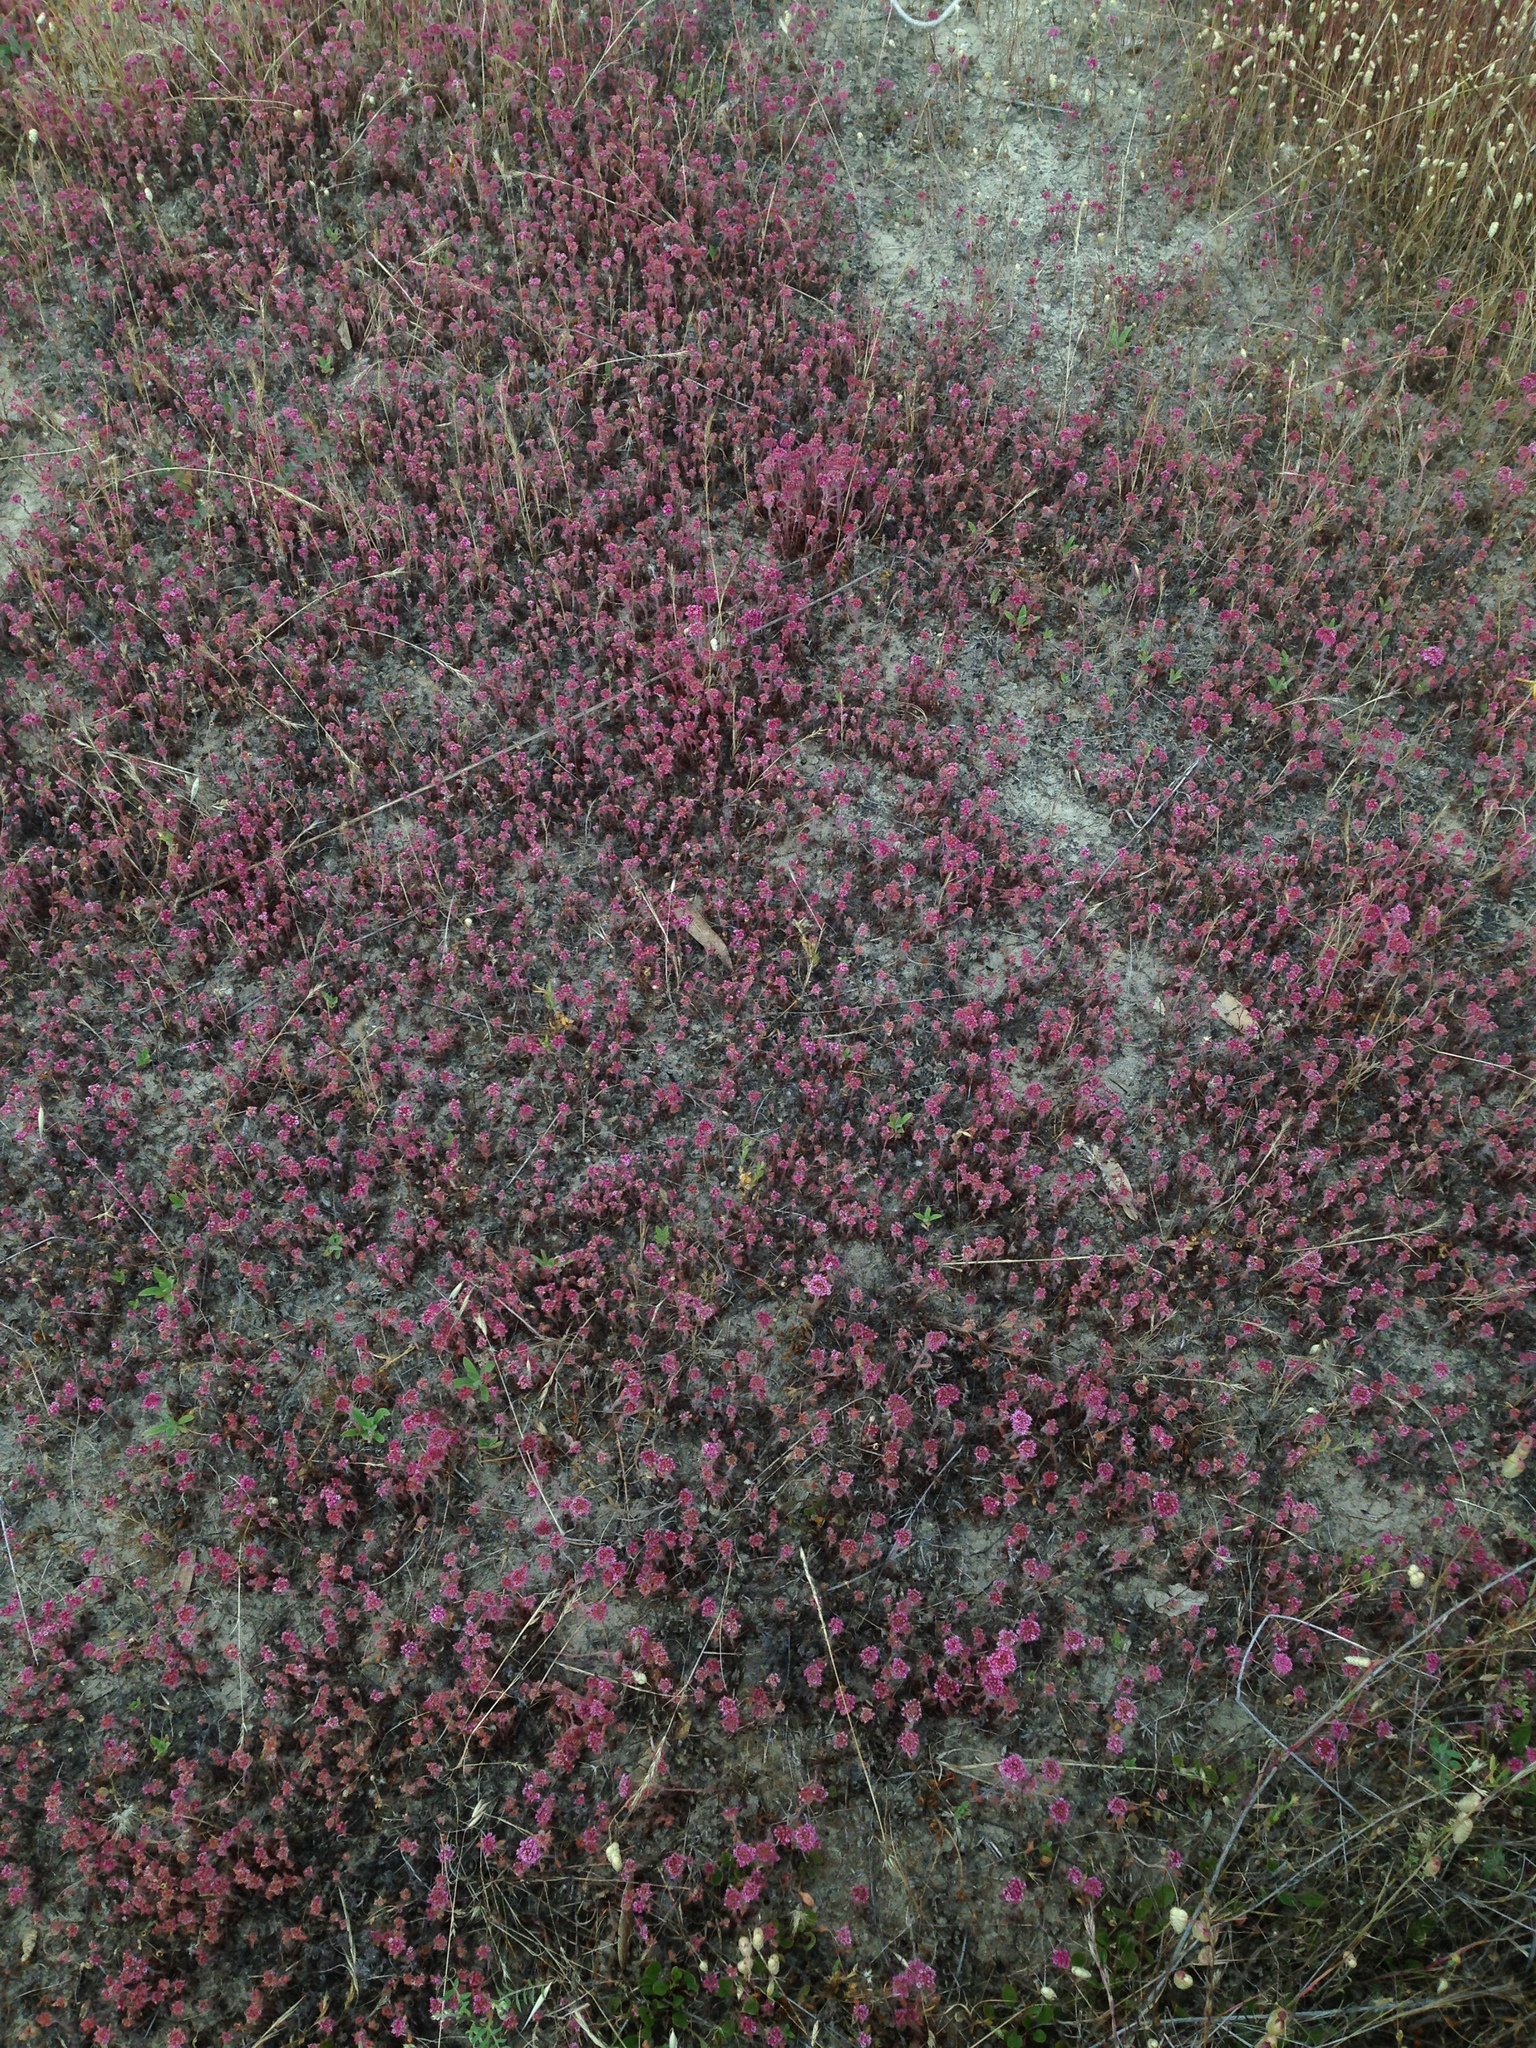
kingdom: Plantae
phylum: Tracheophyta
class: Magnoliopsida
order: Caryophyllales
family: Polygonaceae
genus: Chorizanthe
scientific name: Chorizanthe robusta
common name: Robust spineflower
